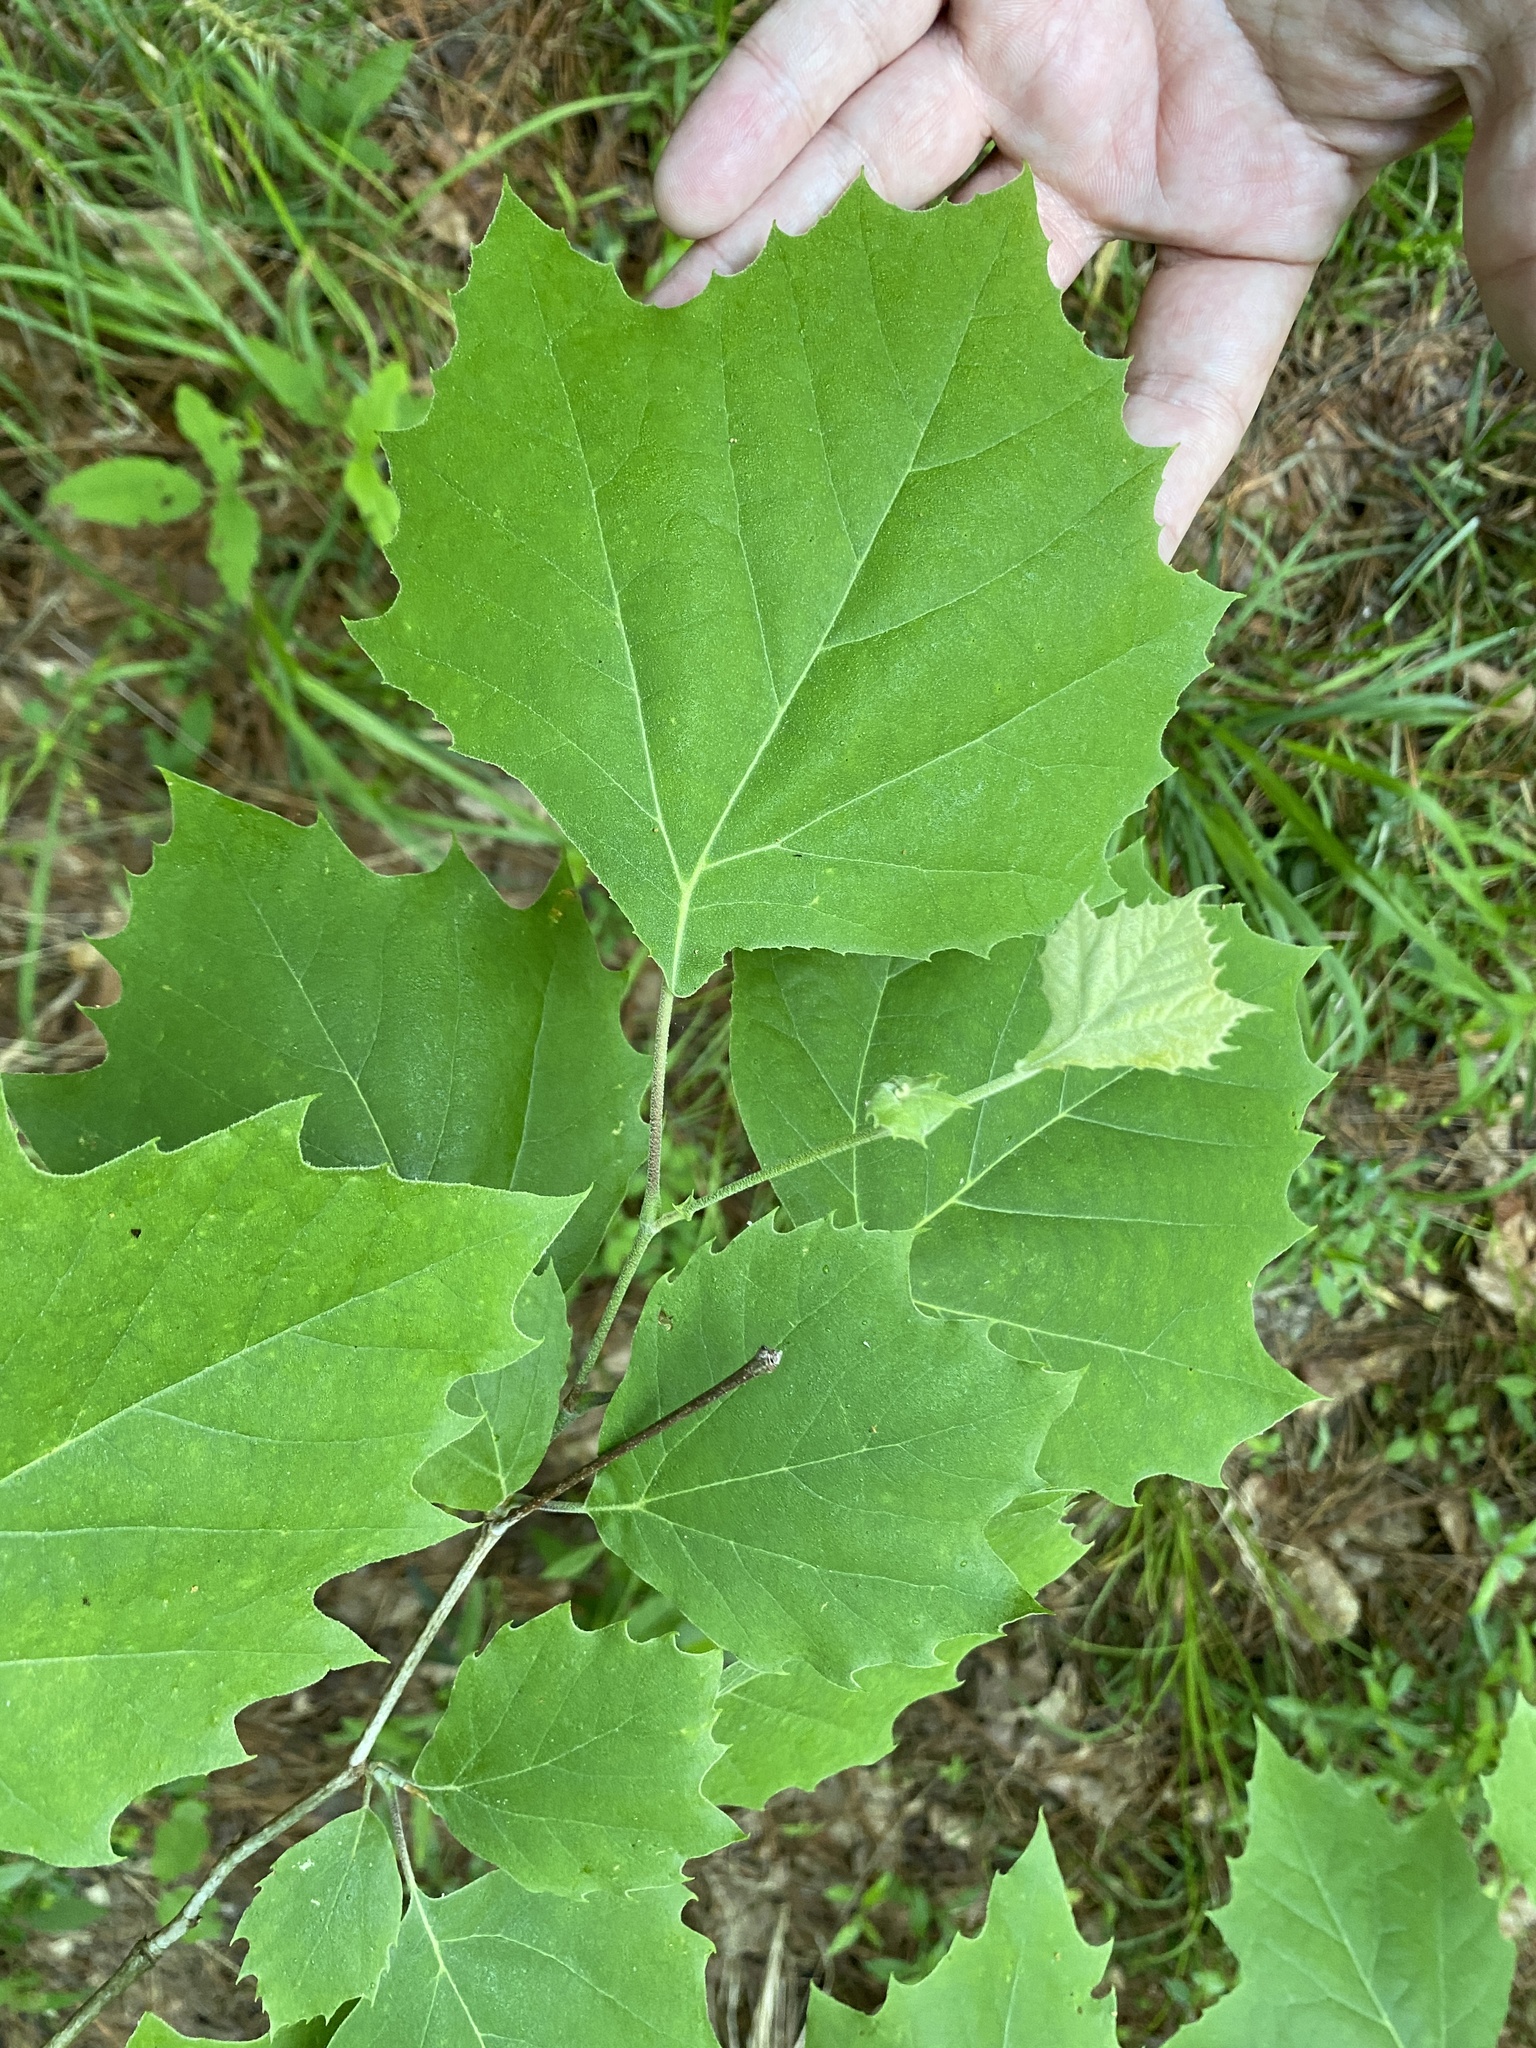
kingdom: Plantae
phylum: Tracheophyta
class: Magnoliopsida
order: Proteales
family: Platanaceae
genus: Platanus
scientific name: Platanus occidentalis
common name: American sycamore
